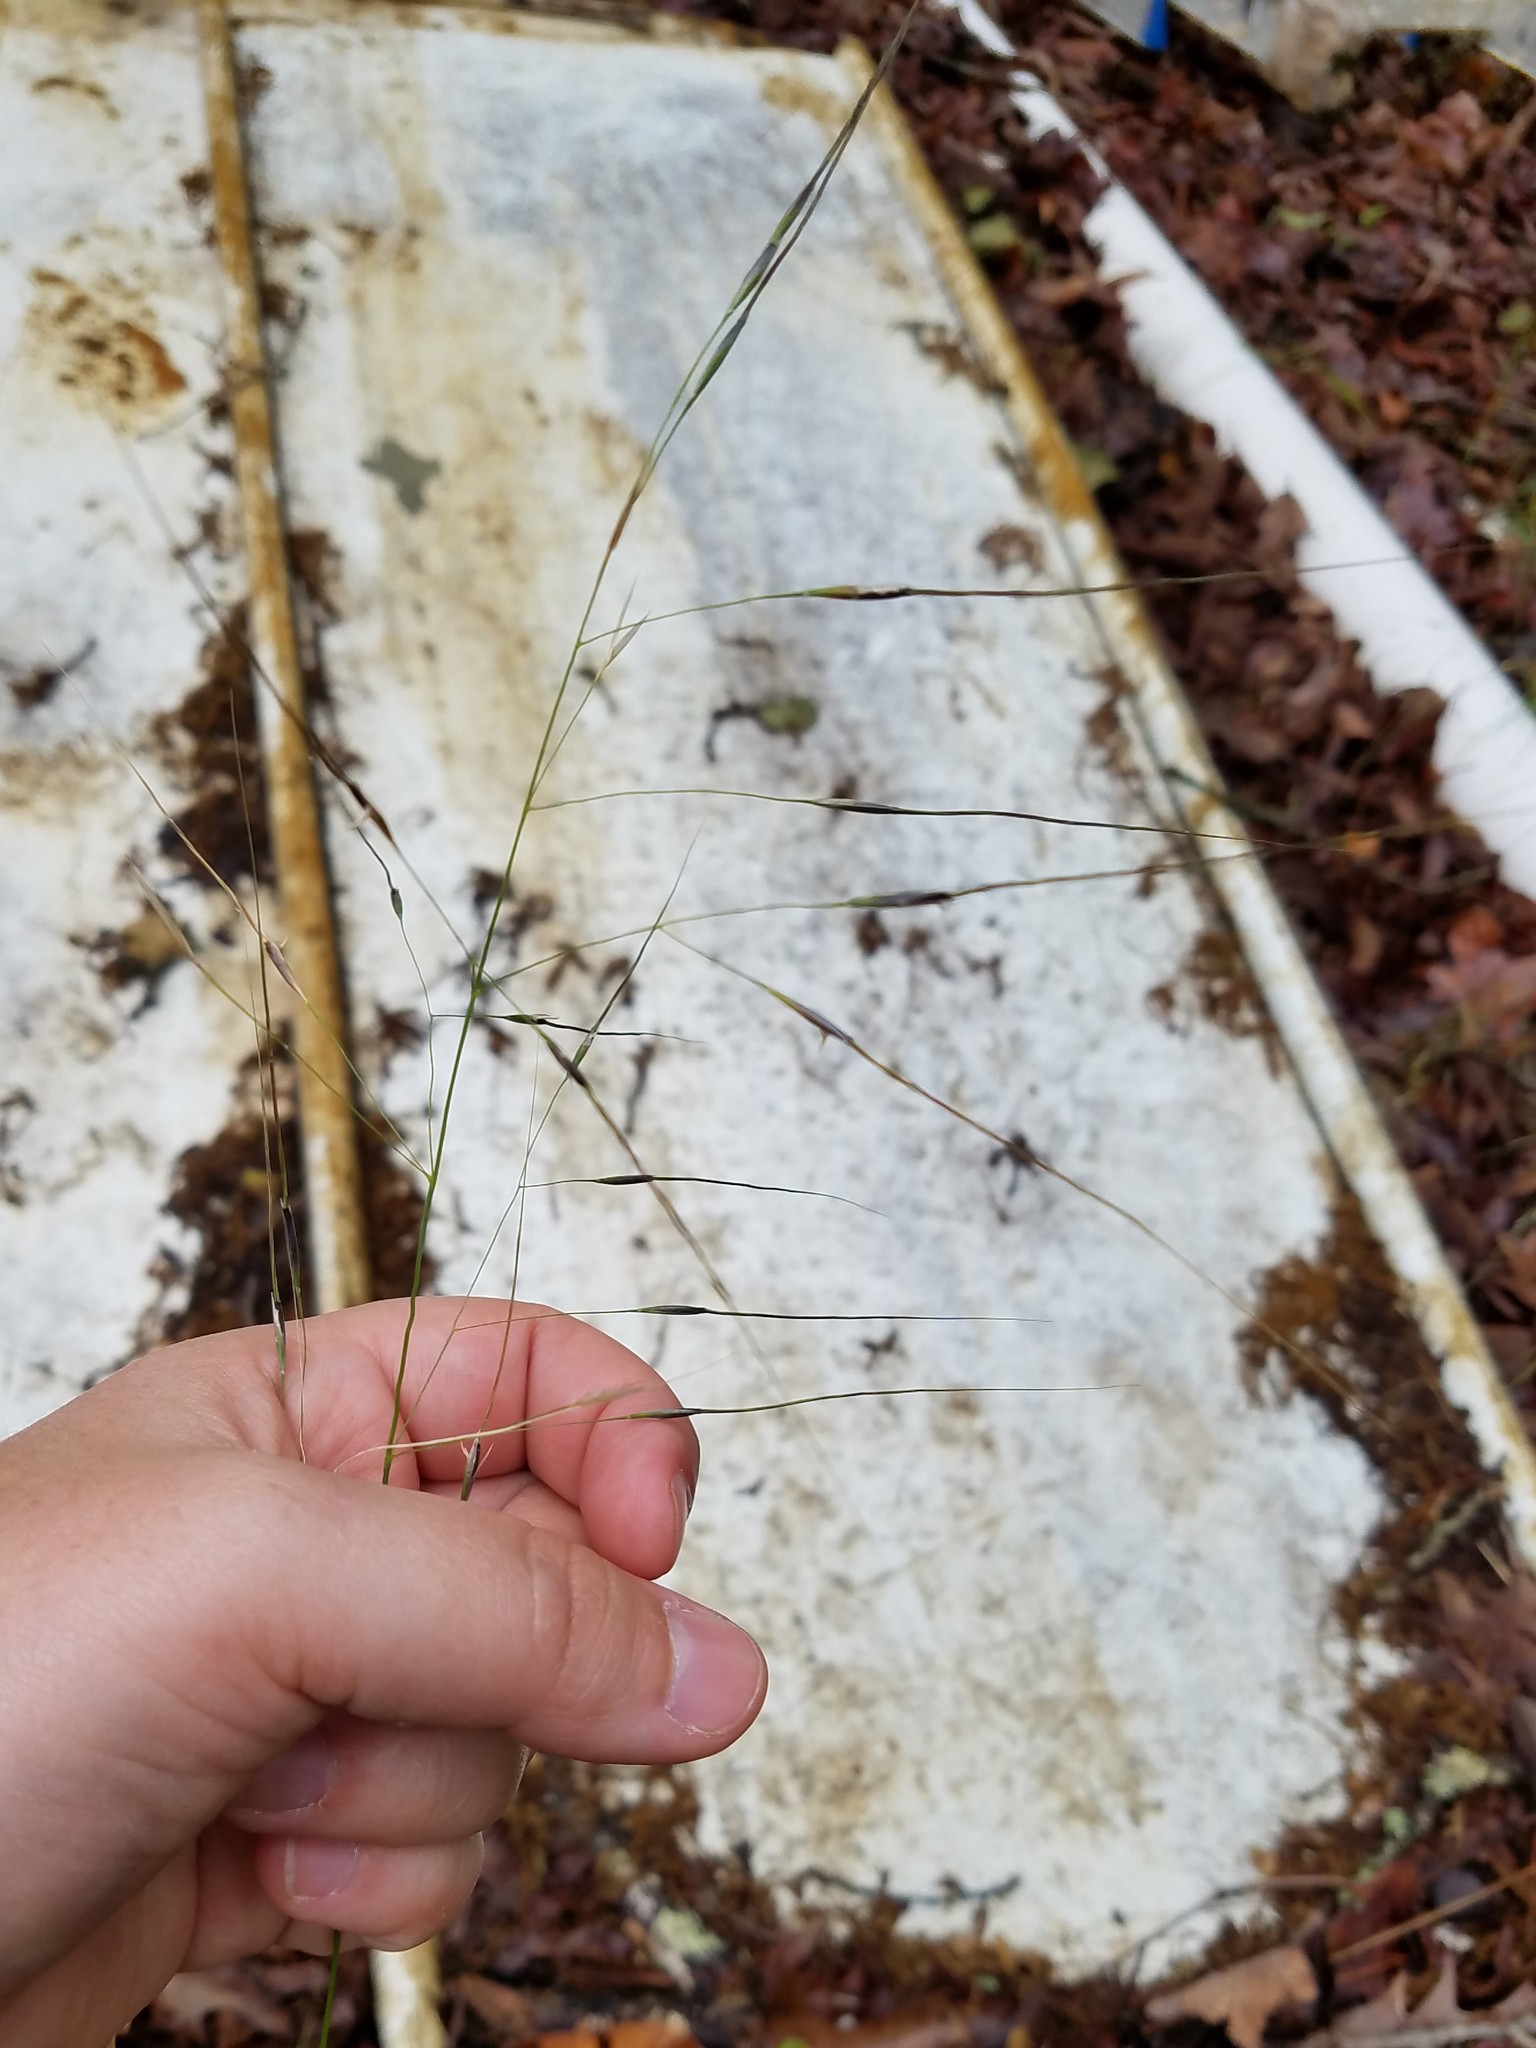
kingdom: Plantae
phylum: Tracheophyta
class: Liliopsida
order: Poales
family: Poaceae
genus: Piptochaetium
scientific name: Piptochaetium avenaceum
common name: Black bunchgrass
